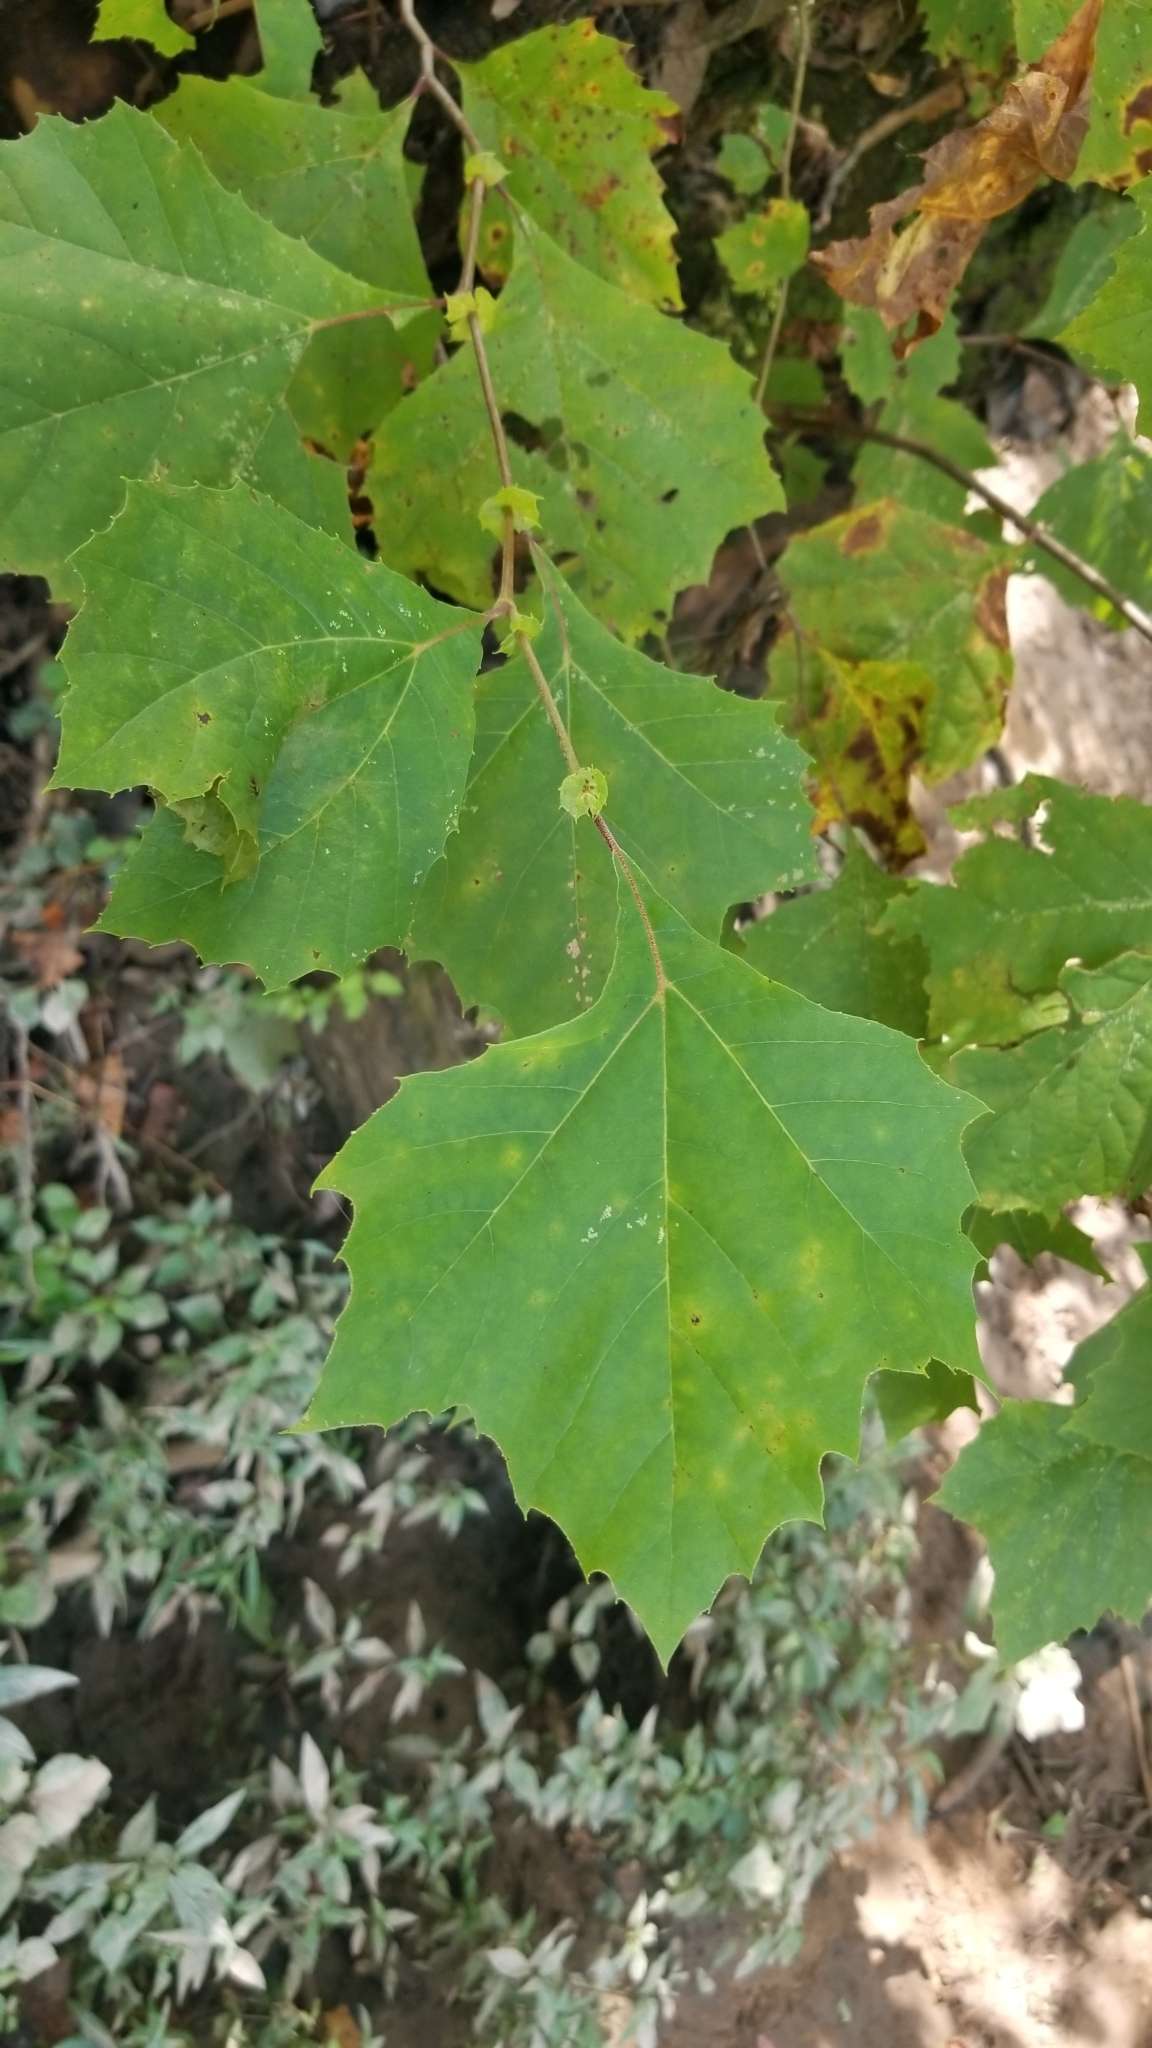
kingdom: Plantae
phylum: Tracheophyta
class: Magnoliopsida
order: Proteales
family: Platanaceae
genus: Platanus
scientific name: Platanus occidentalis
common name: American sycamore
